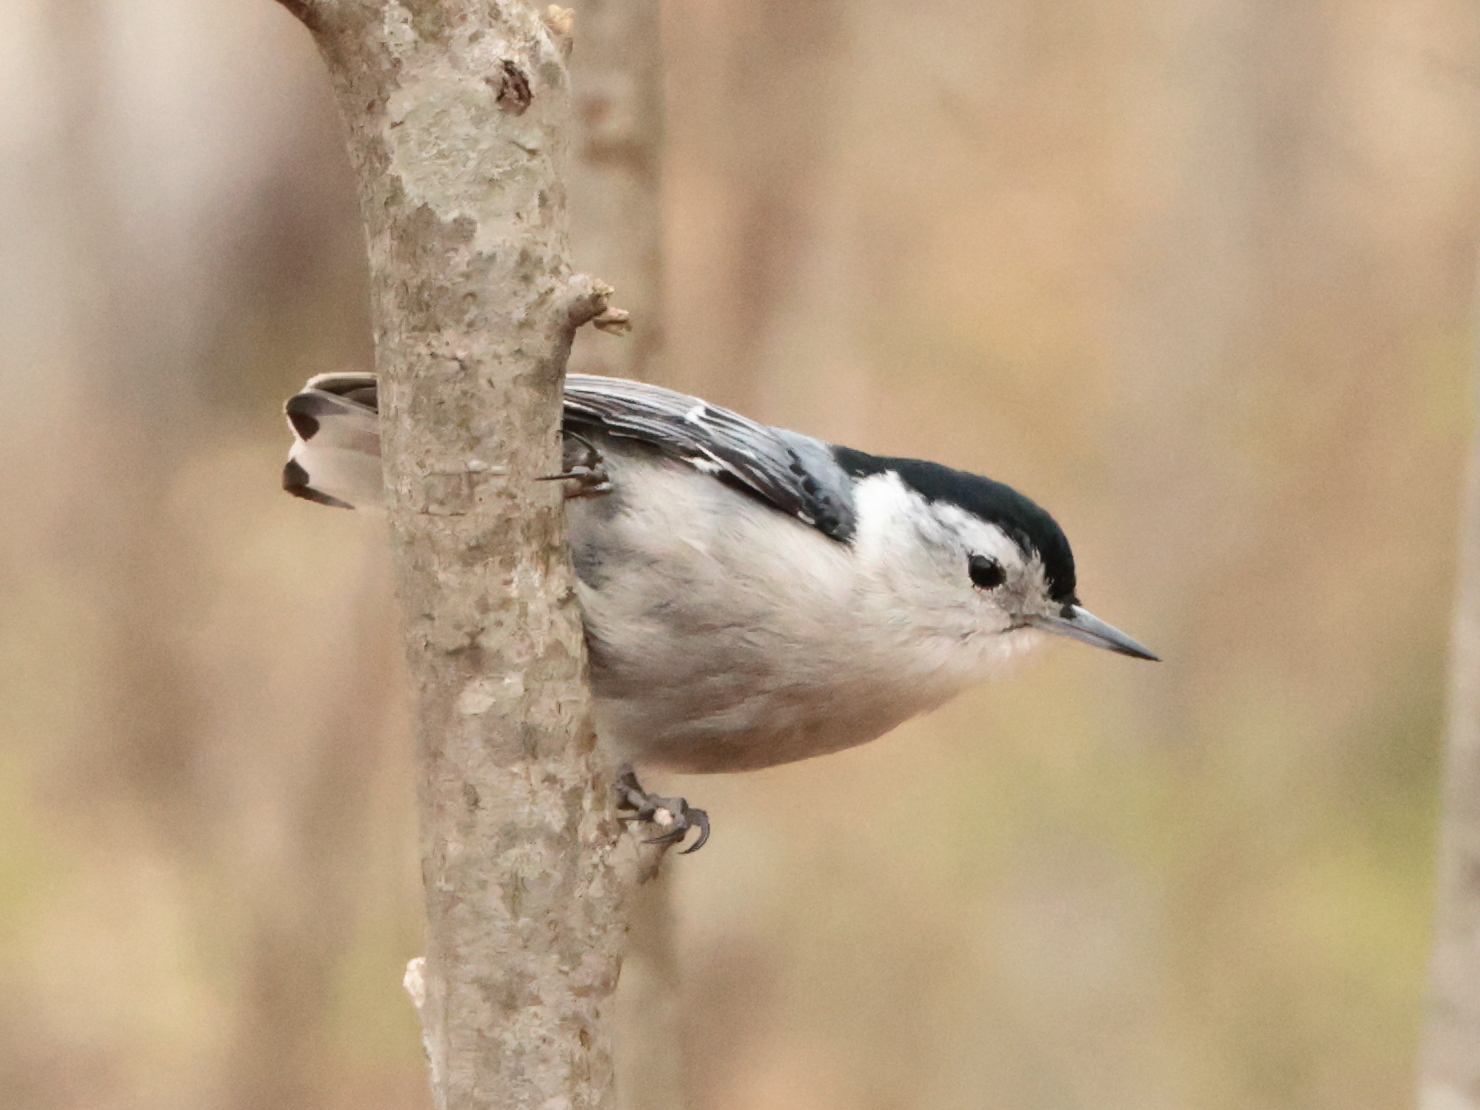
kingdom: Animalia
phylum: Chordata
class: Aves
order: Passeriformes
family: Sittidae
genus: Sitta
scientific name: Sitta carolinensis
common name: White-breasted nuthatch
